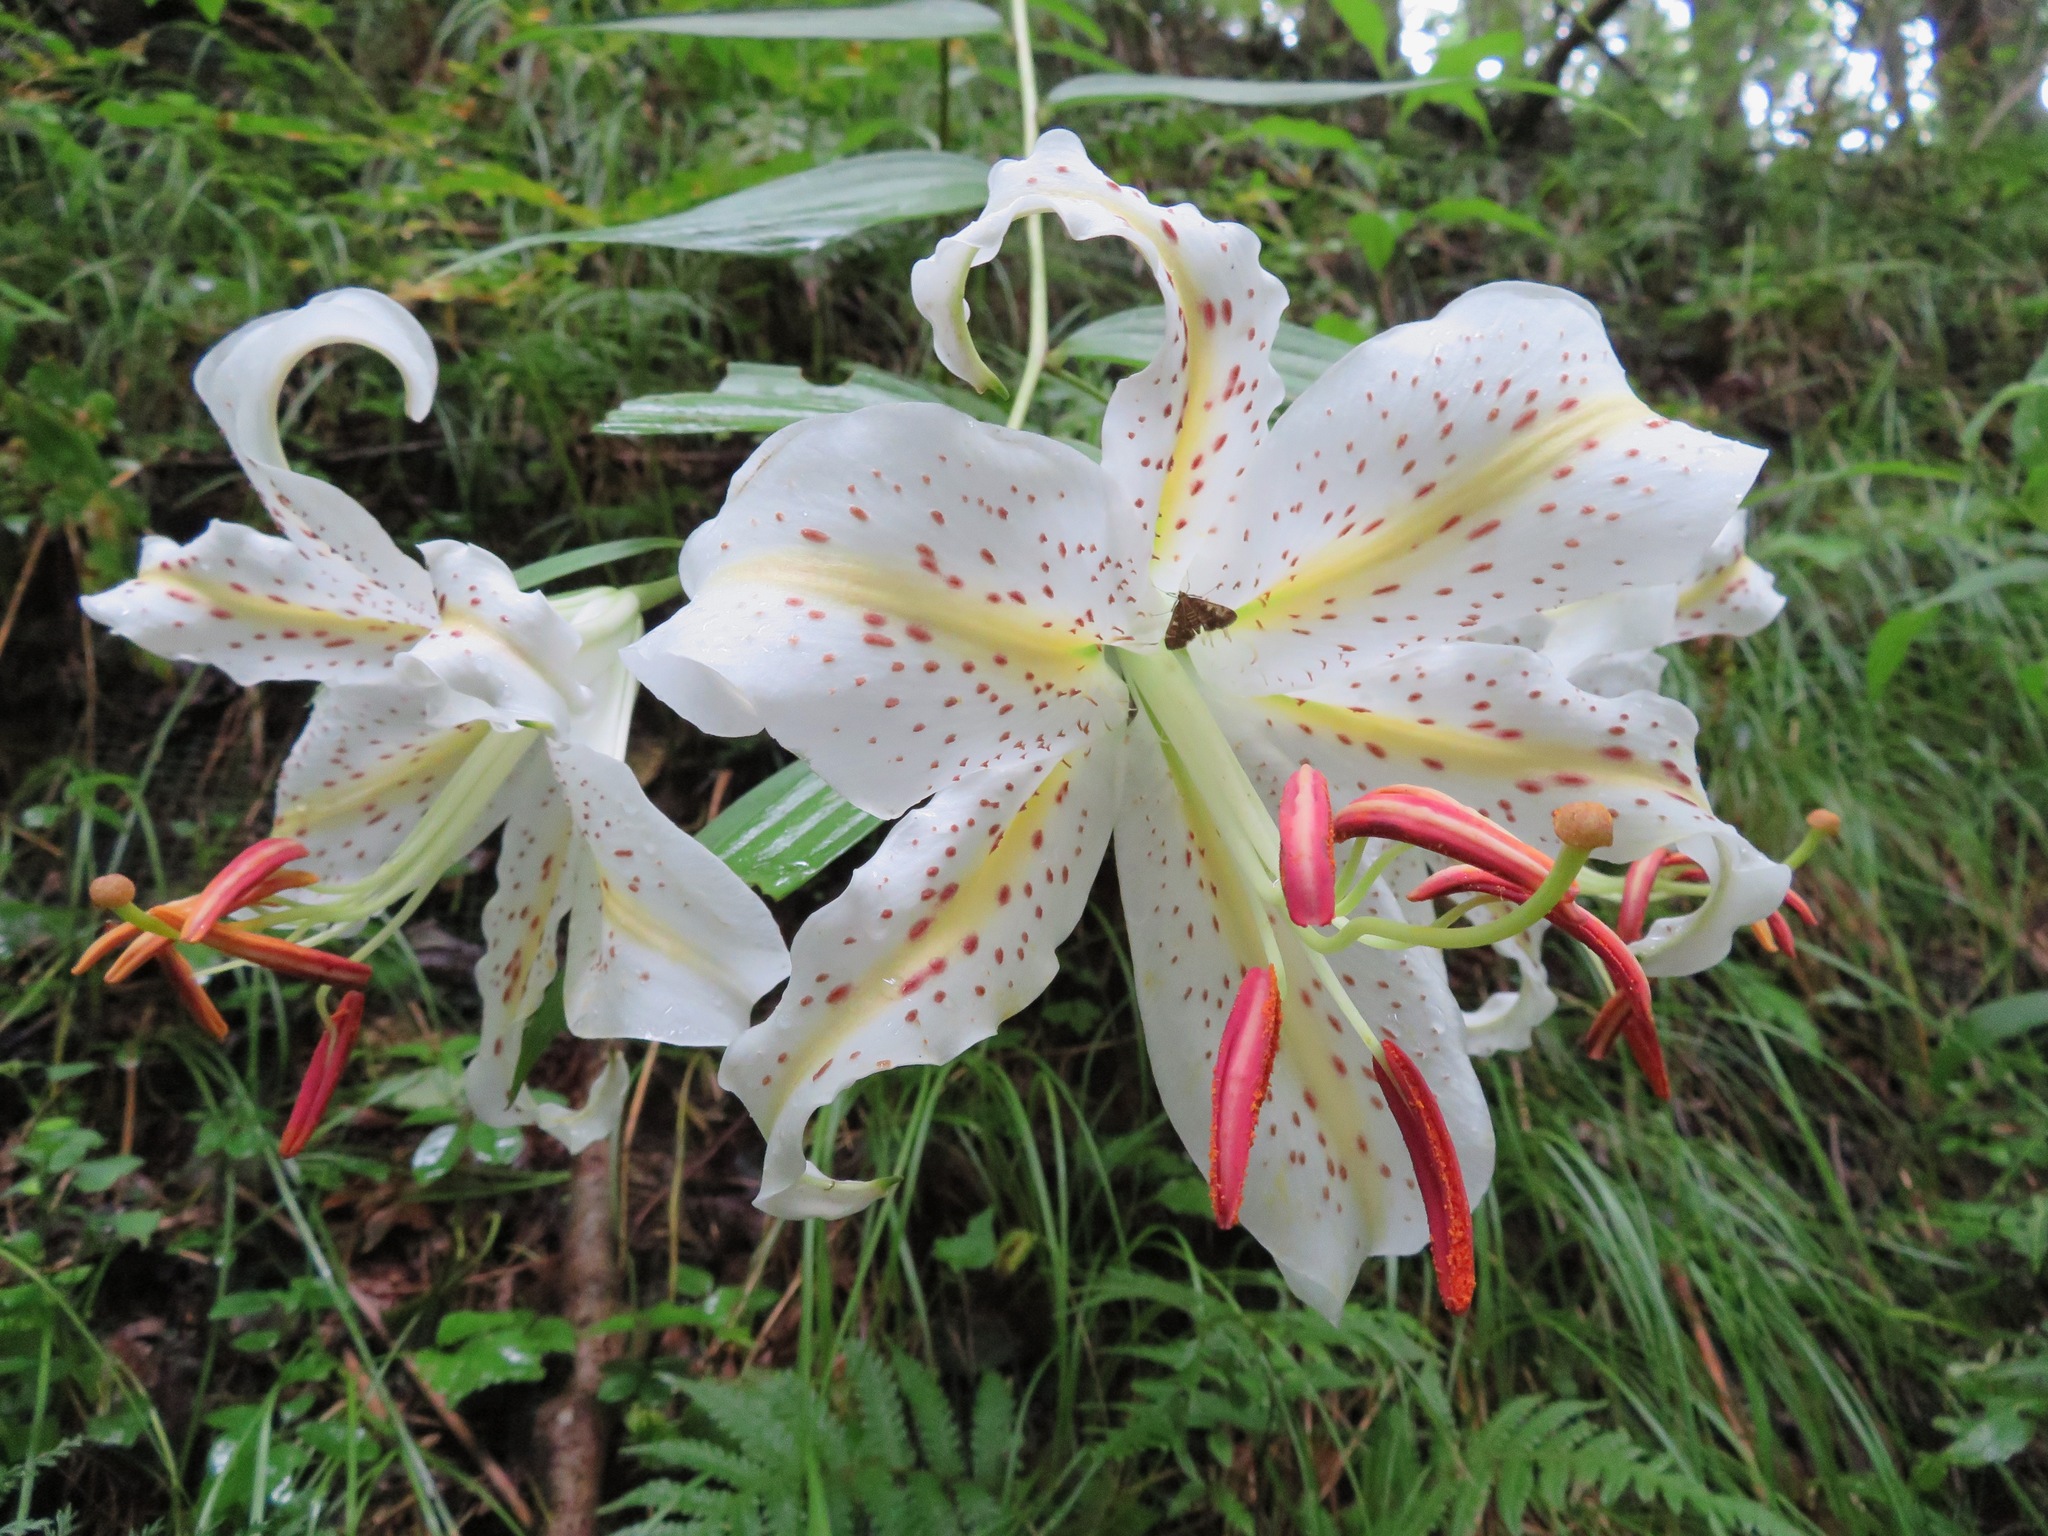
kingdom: Plantae
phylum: Tracheophyta
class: Liliopsida
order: Liliales
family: Liliaceae
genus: Lilium
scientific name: Lilium auratum
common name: Golden-ray lily
